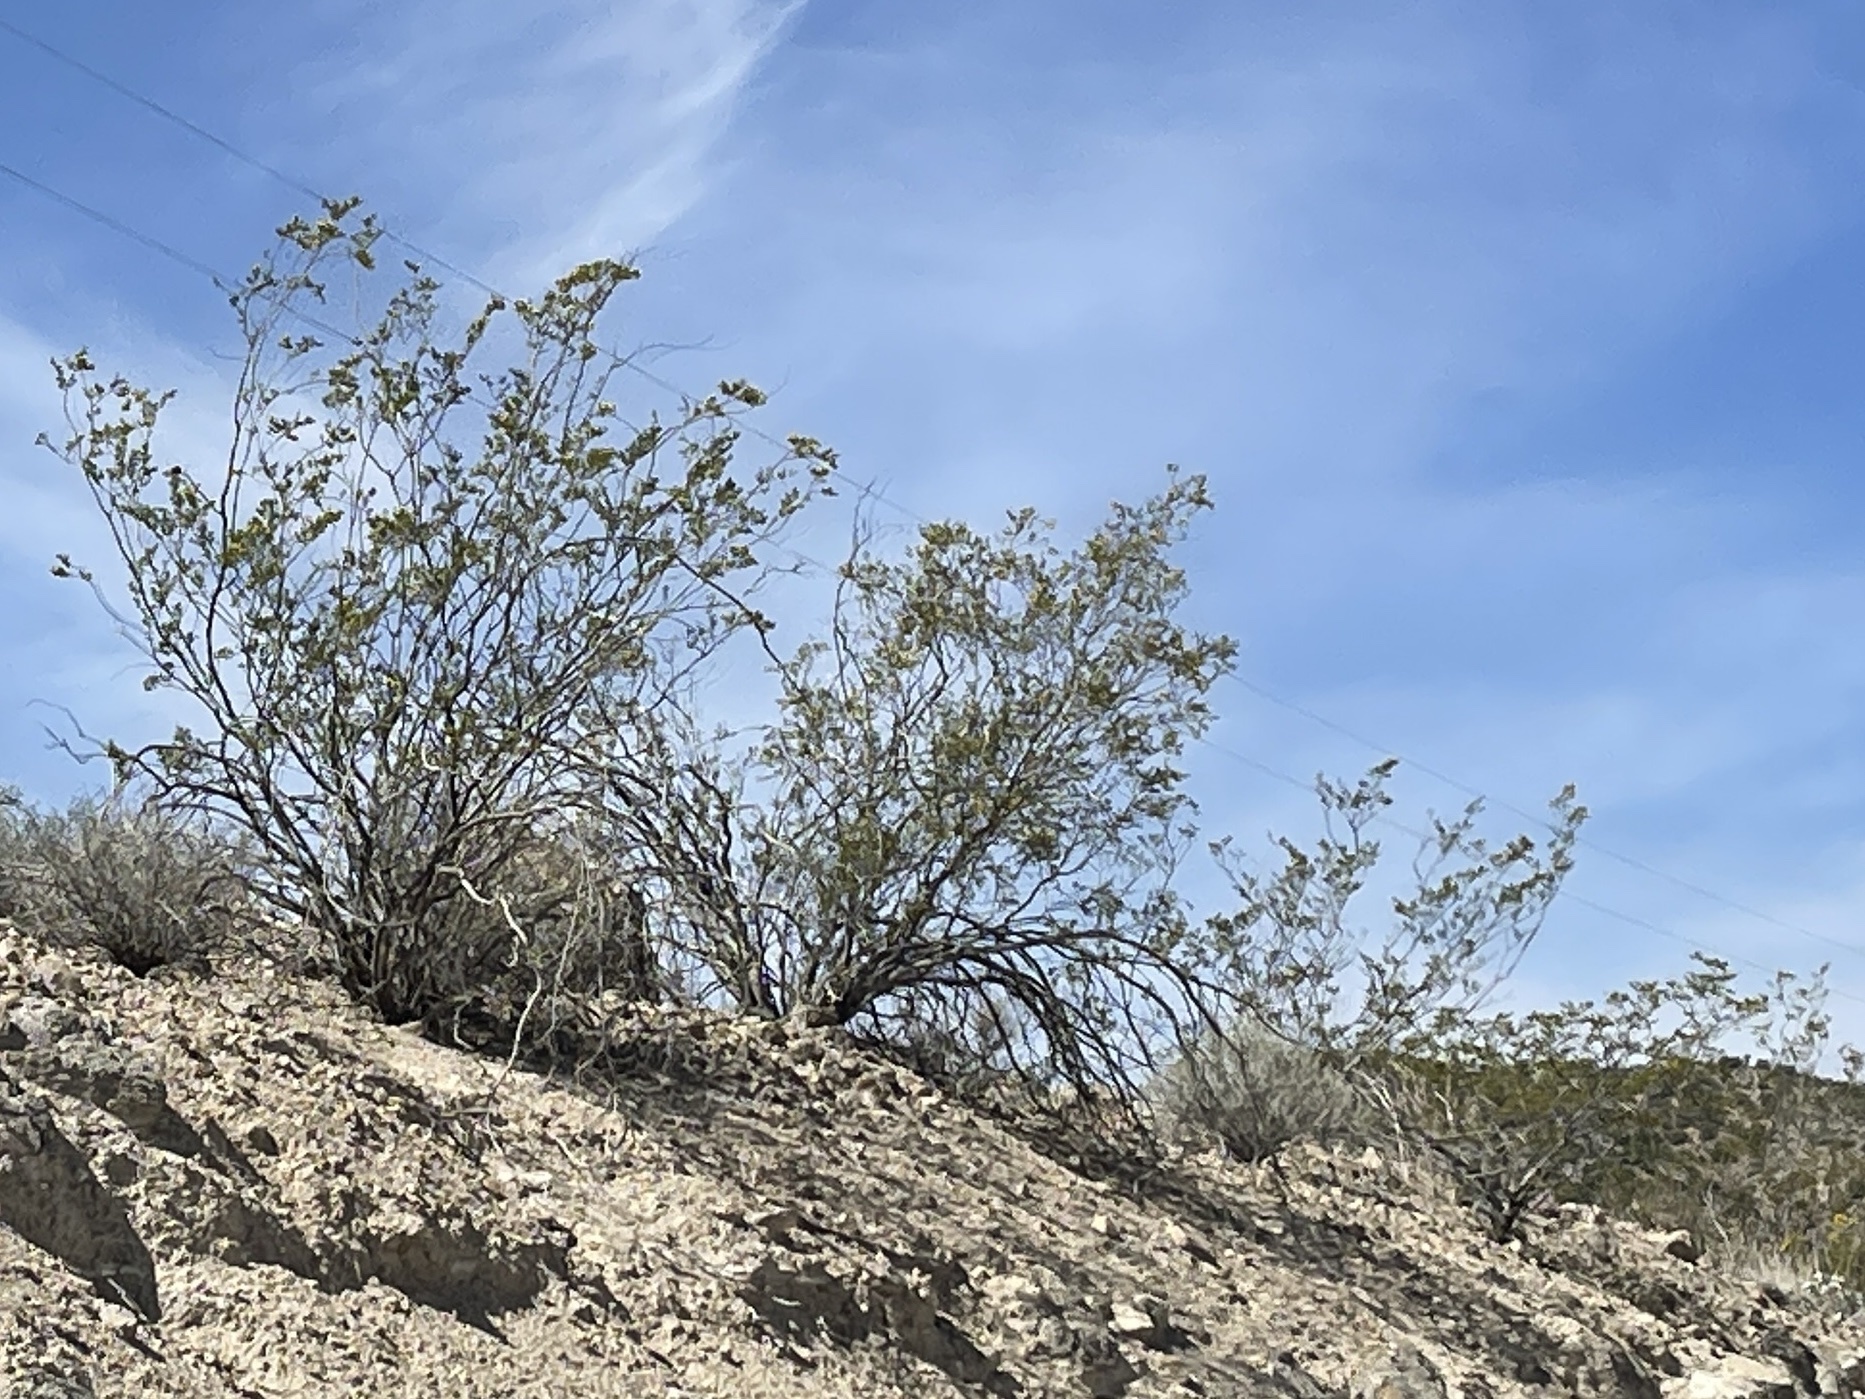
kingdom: Plantae
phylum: Tracheophyta
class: Magnoliopsida
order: Zygophyllales
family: Zygophyllaceae
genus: Larrea
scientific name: Larrea tridentata
